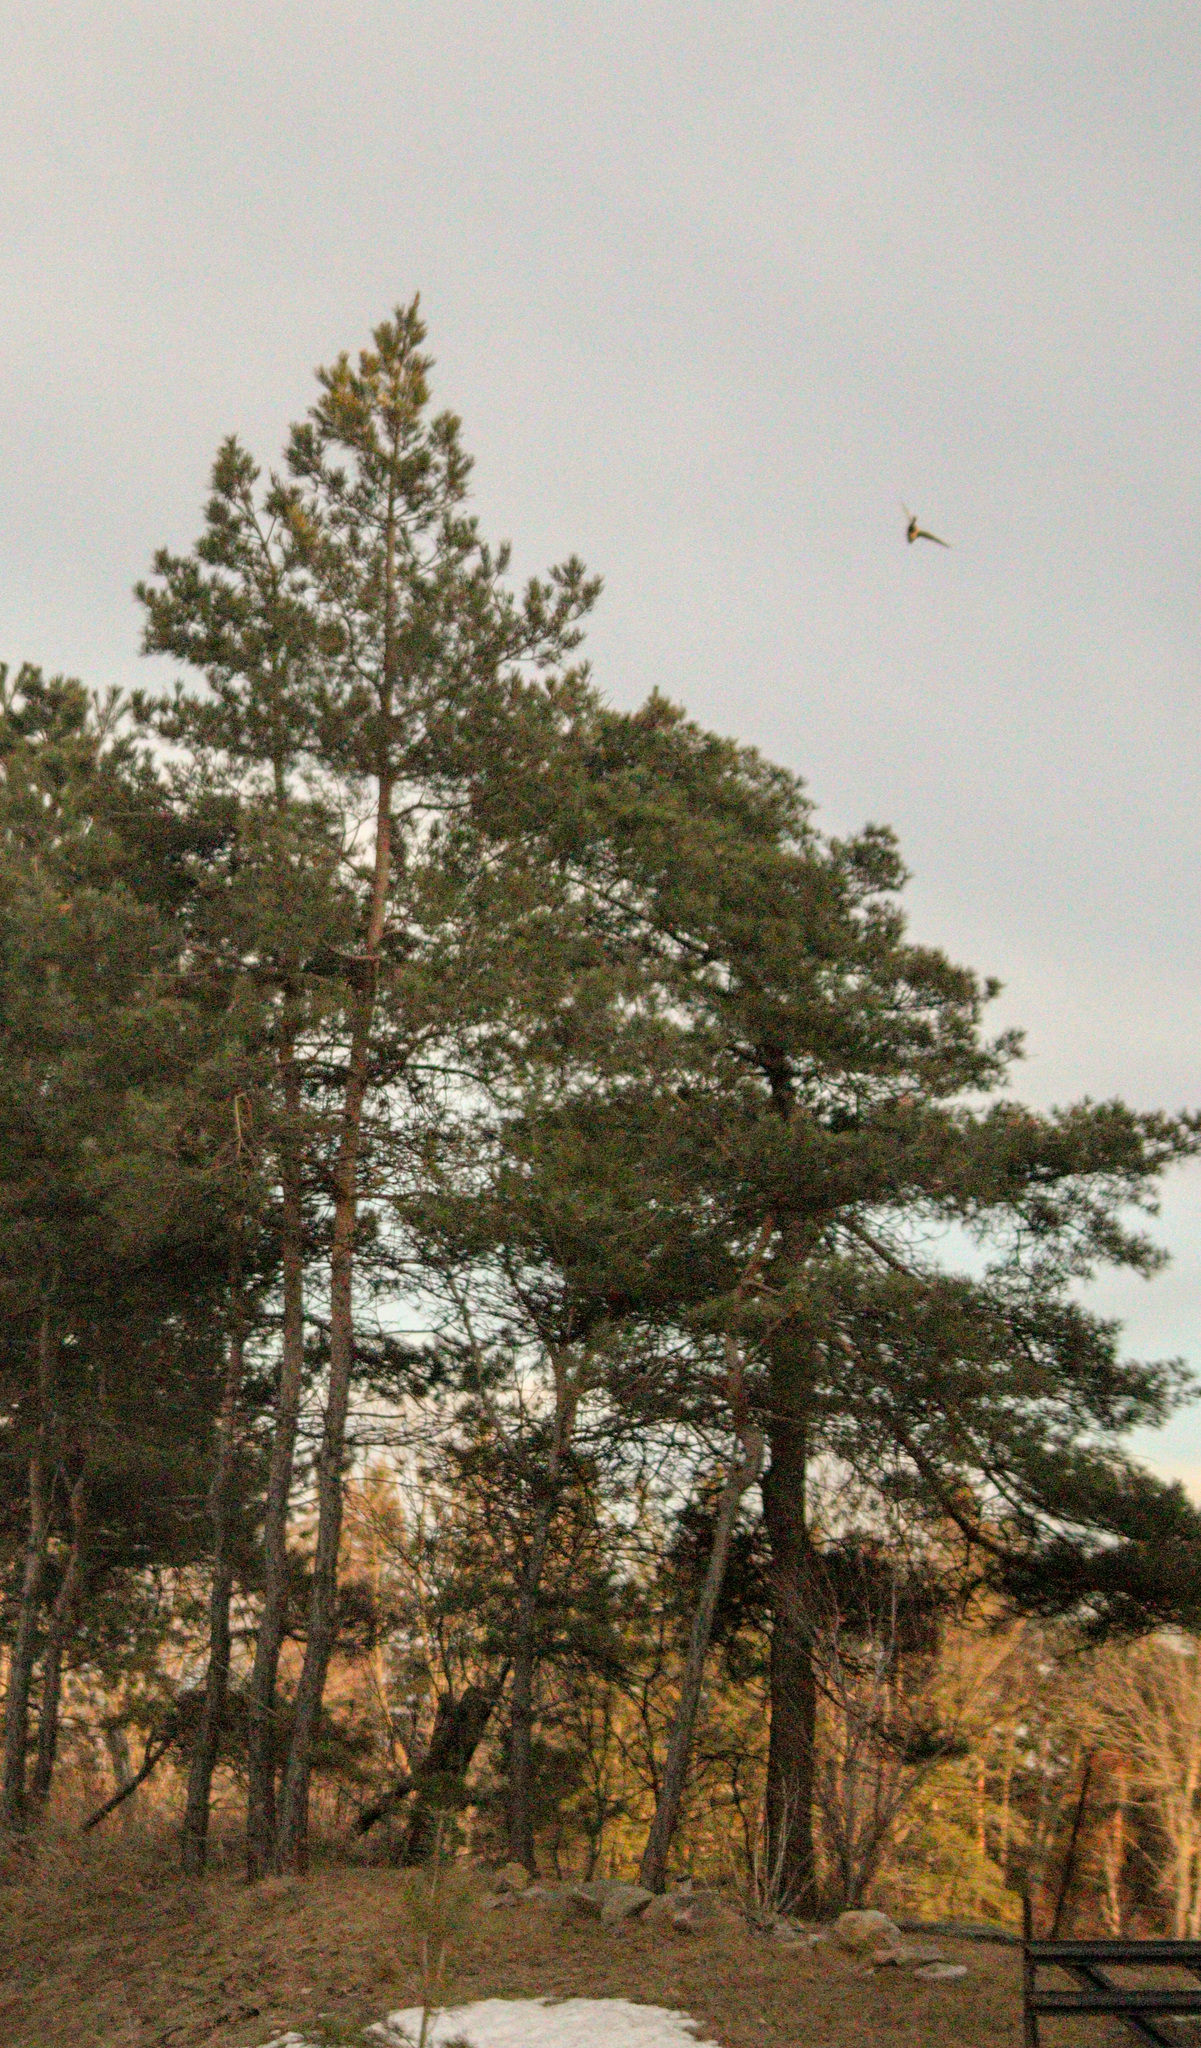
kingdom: Plantae
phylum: Tracheophyta
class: Pinopsida
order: Pinales
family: Pinaceae
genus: Pinus
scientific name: Pinus sylvestris
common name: Scots pine
